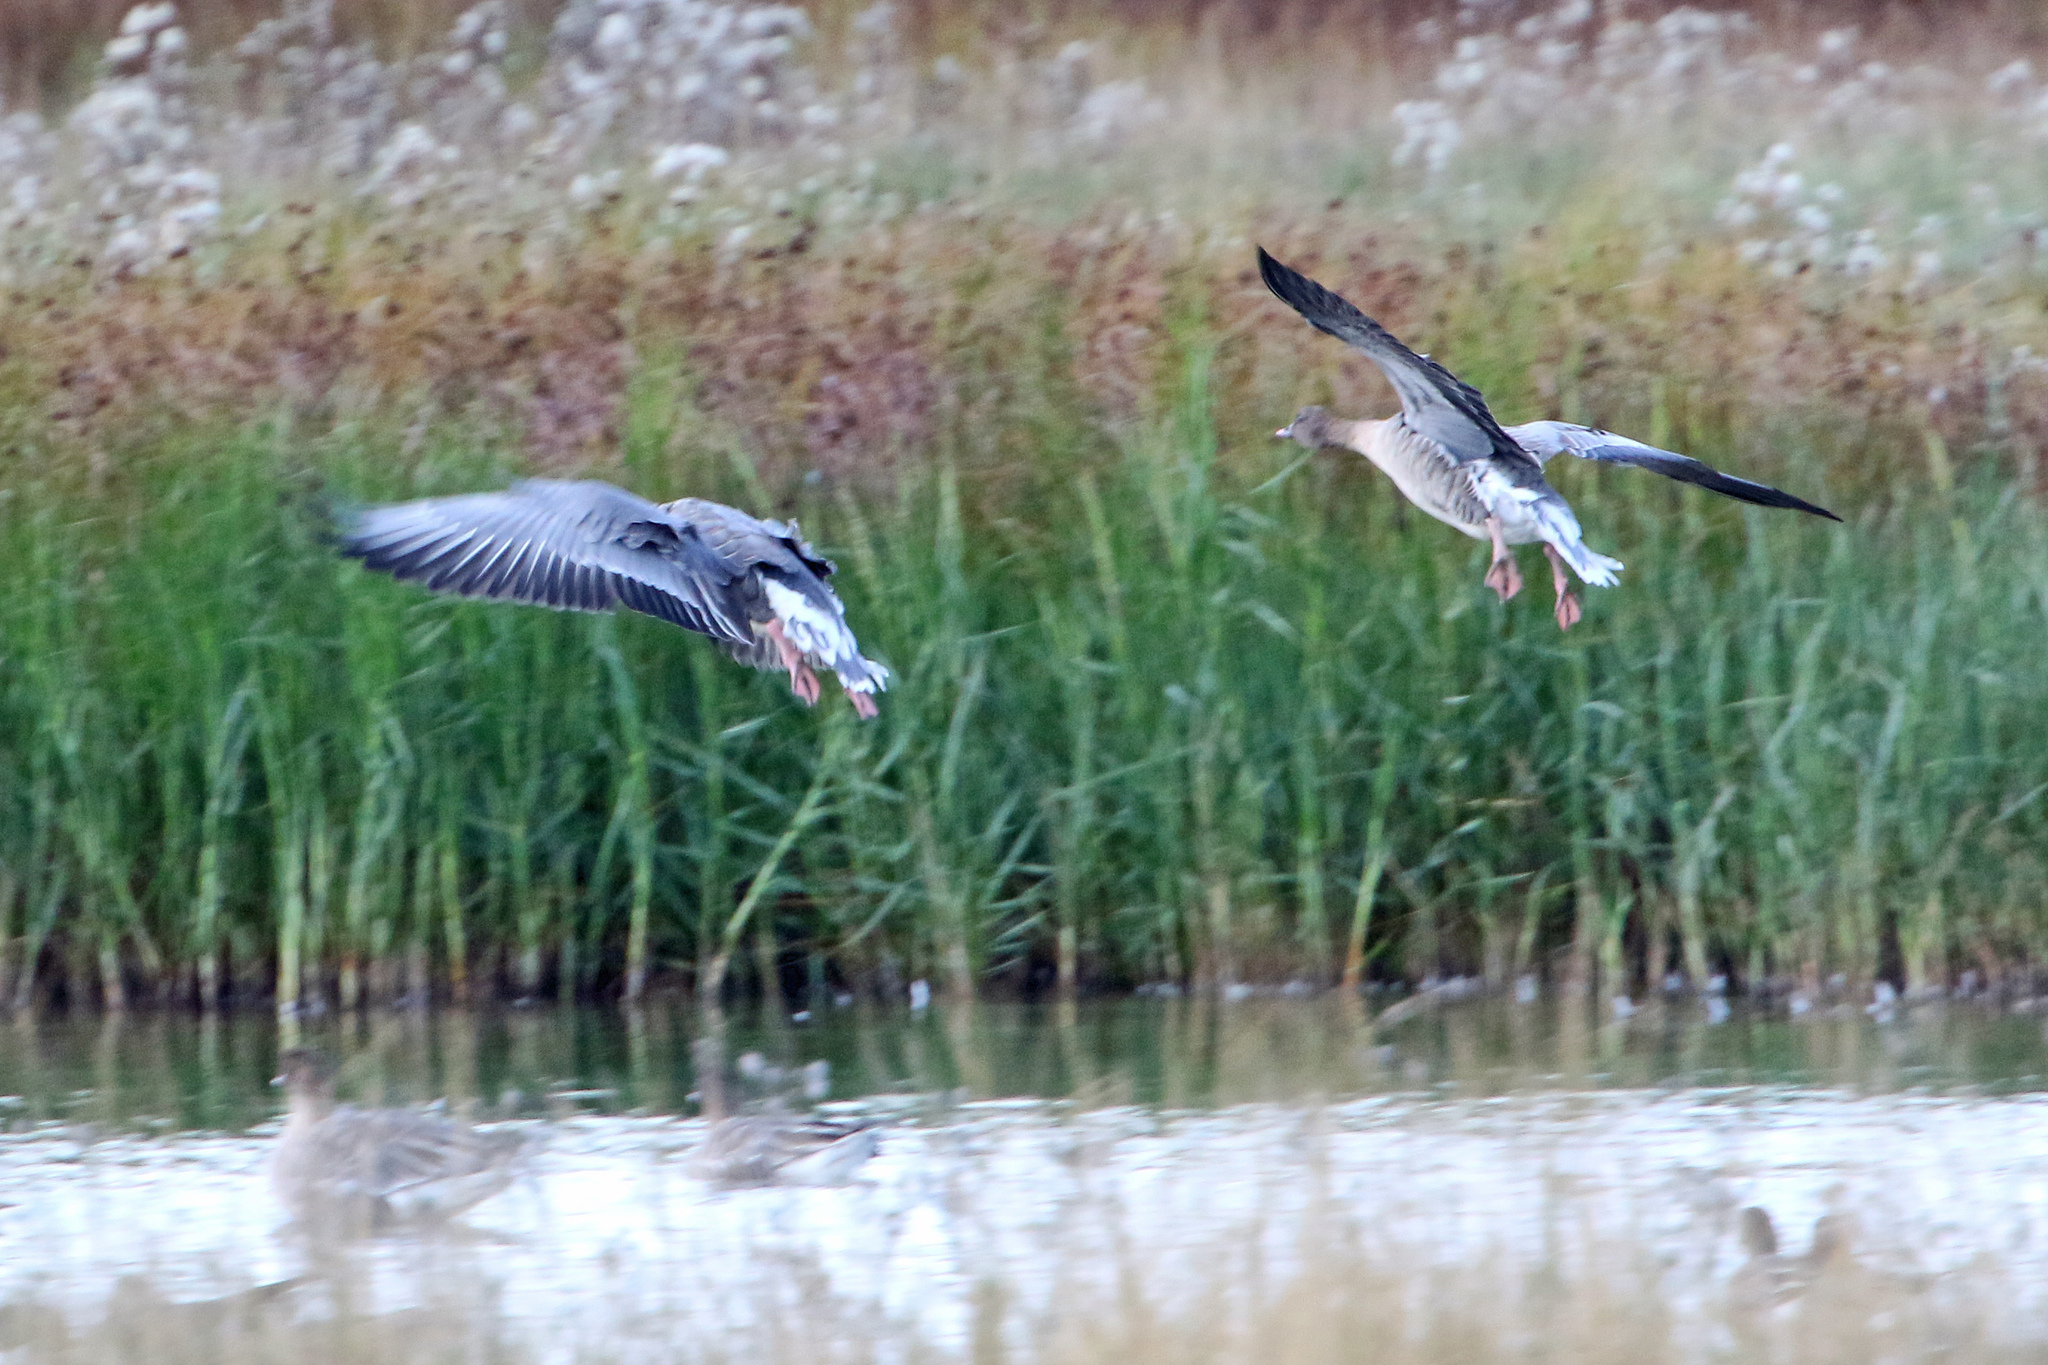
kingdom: Animalia
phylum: Chordata
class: Aves
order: Anseriformes
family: Anatidae
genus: Anser
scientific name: Anser brachyrhynchus
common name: Pink-footed goose
